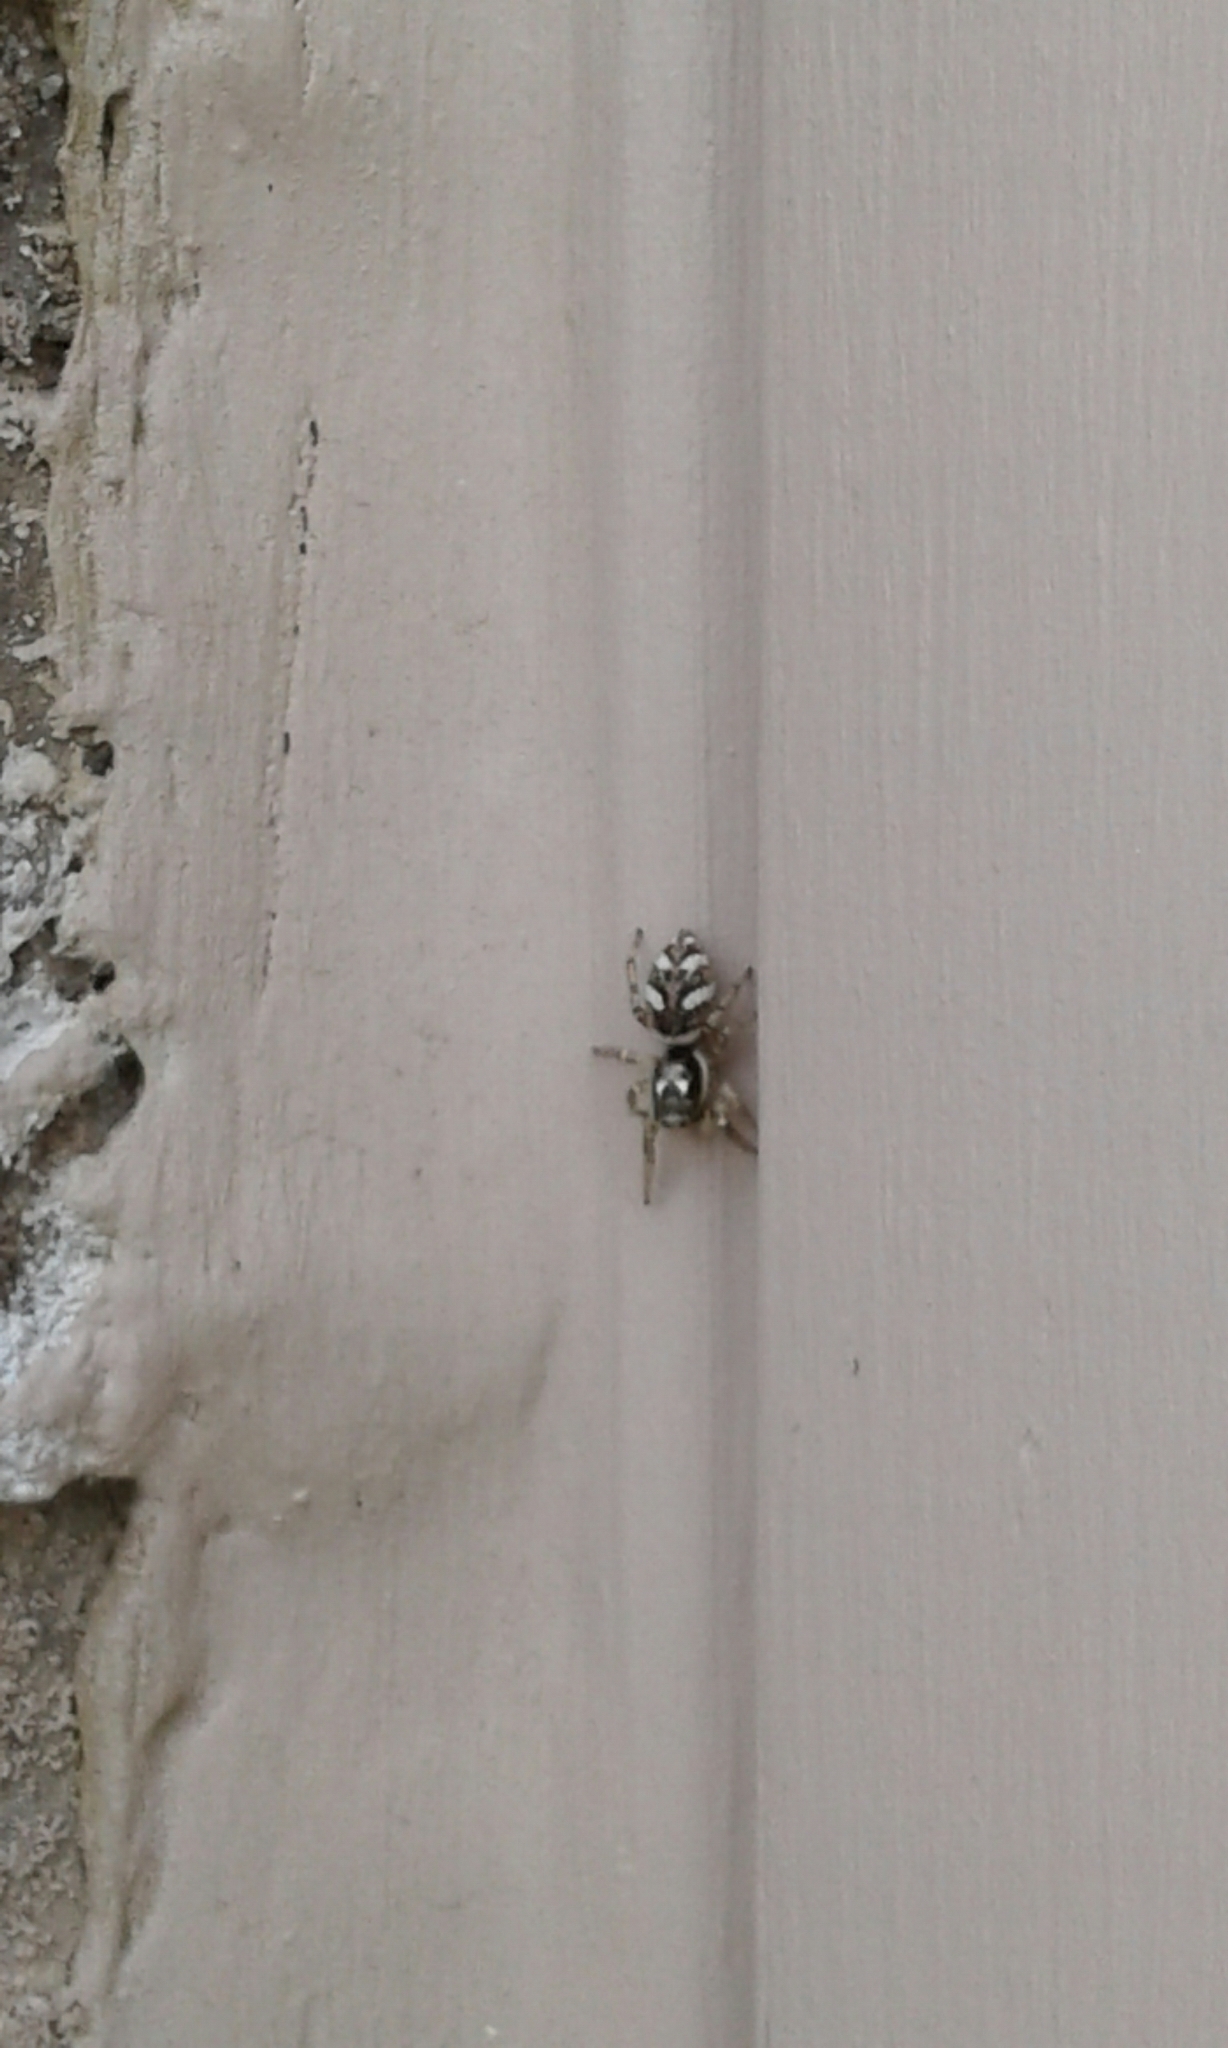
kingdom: Animalia
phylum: Arthropoda
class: Arachnida
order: Araneae
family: Salticidae
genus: Salticus
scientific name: Salticus scenicus
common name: Zebra jumper
